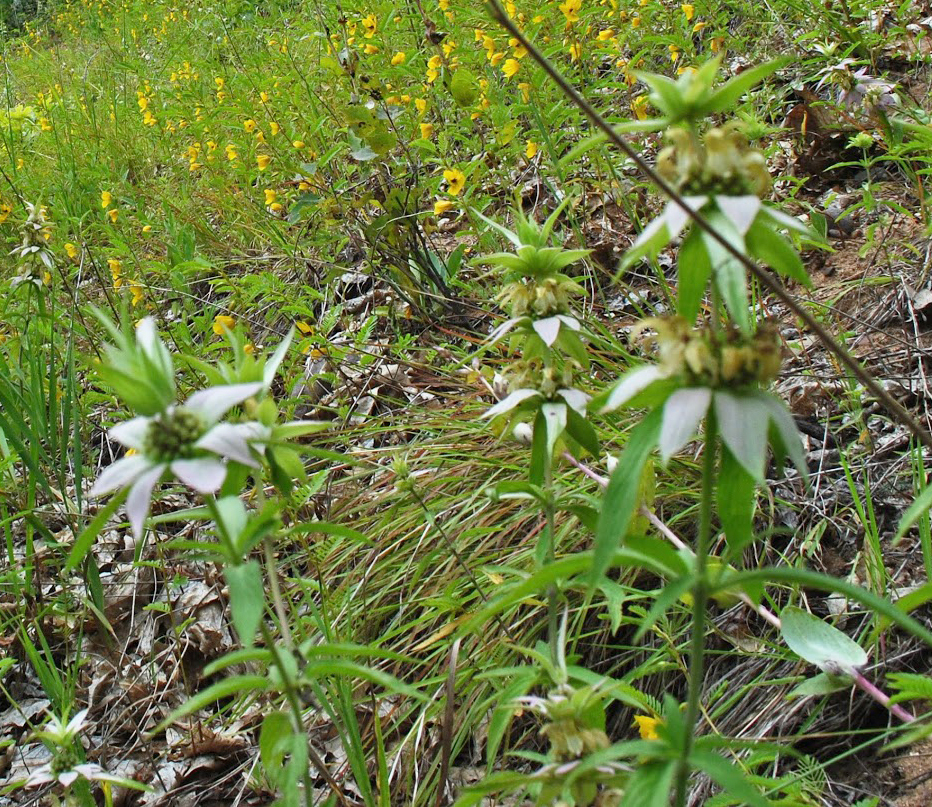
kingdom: Plantae
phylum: Tracheophyta
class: Magnoliopsida
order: Lamiales
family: Lamiaceae
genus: Monarda
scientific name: Monarda punctata
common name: Dotted monarda
